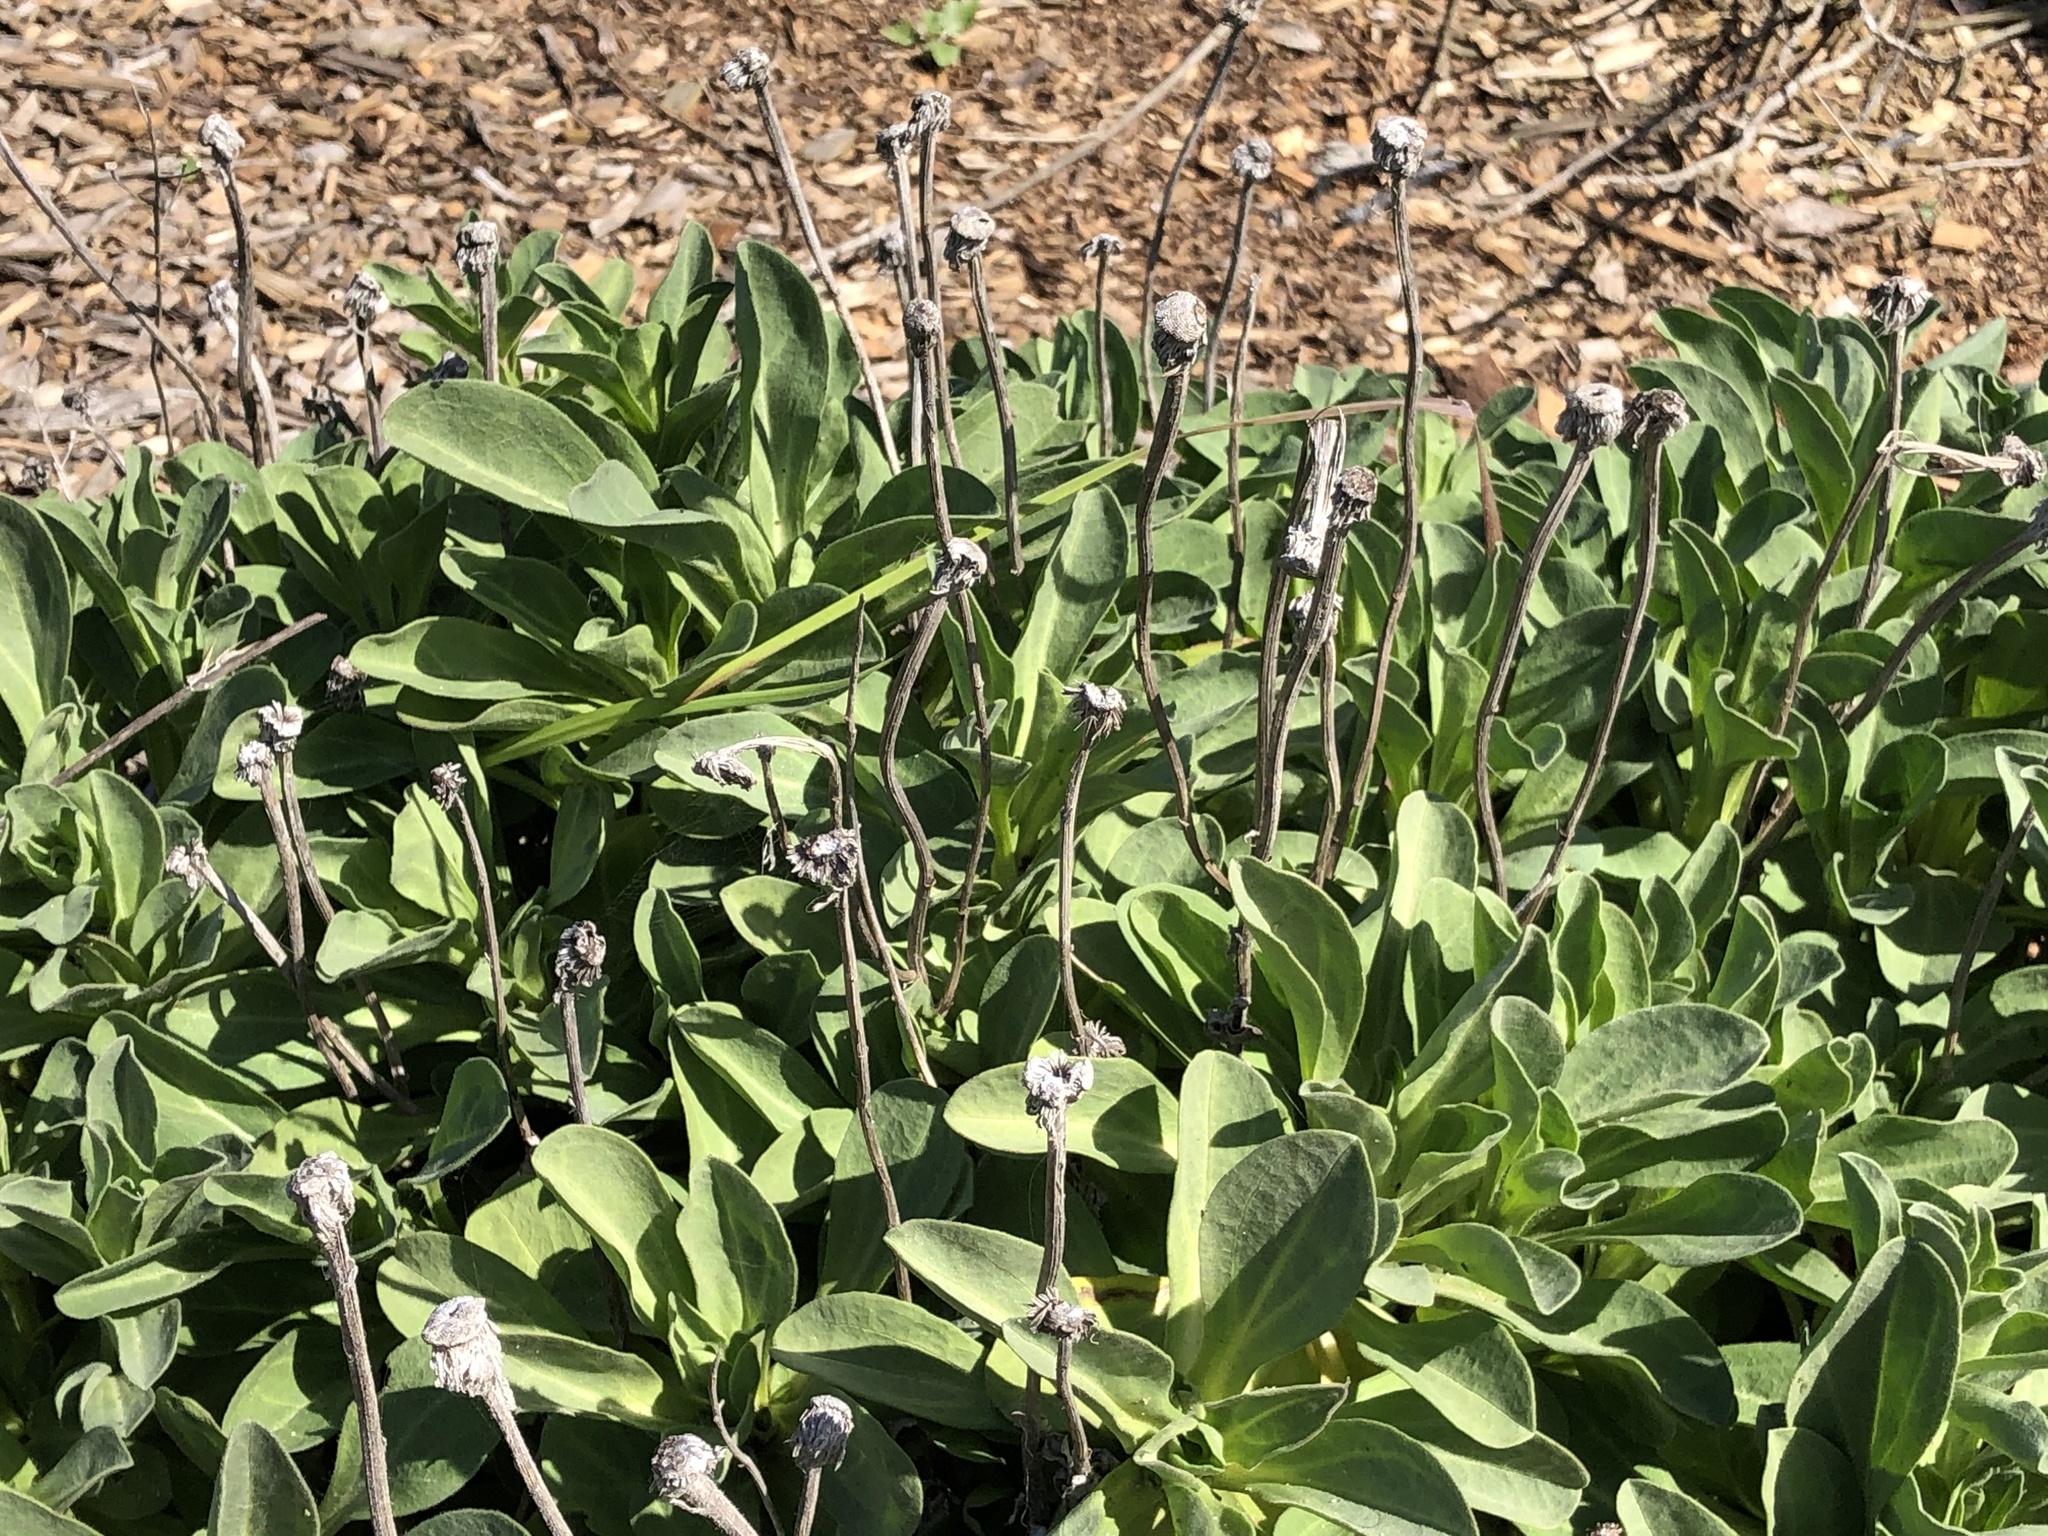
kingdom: Plantae
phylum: Tracheophyta
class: Magnoliopsida
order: Asterales
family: Asteraceae
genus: Erigeron
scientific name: Erigeron glaucus
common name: Seaside daisy
